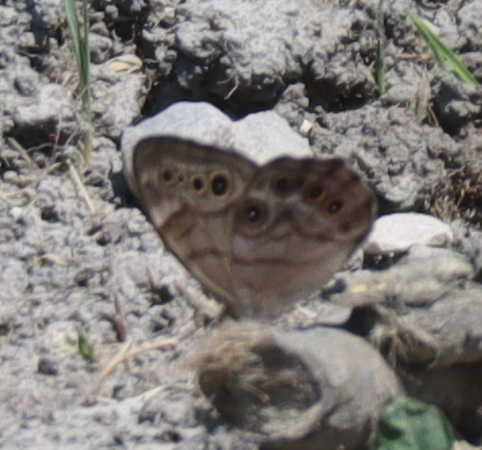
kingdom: Animalia
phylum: Arthropoda
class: Insecta
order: Lepidoptera
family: Nymphalidae
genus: Lethe
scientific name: Lethe anthedon
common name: Northern pearly-eye
